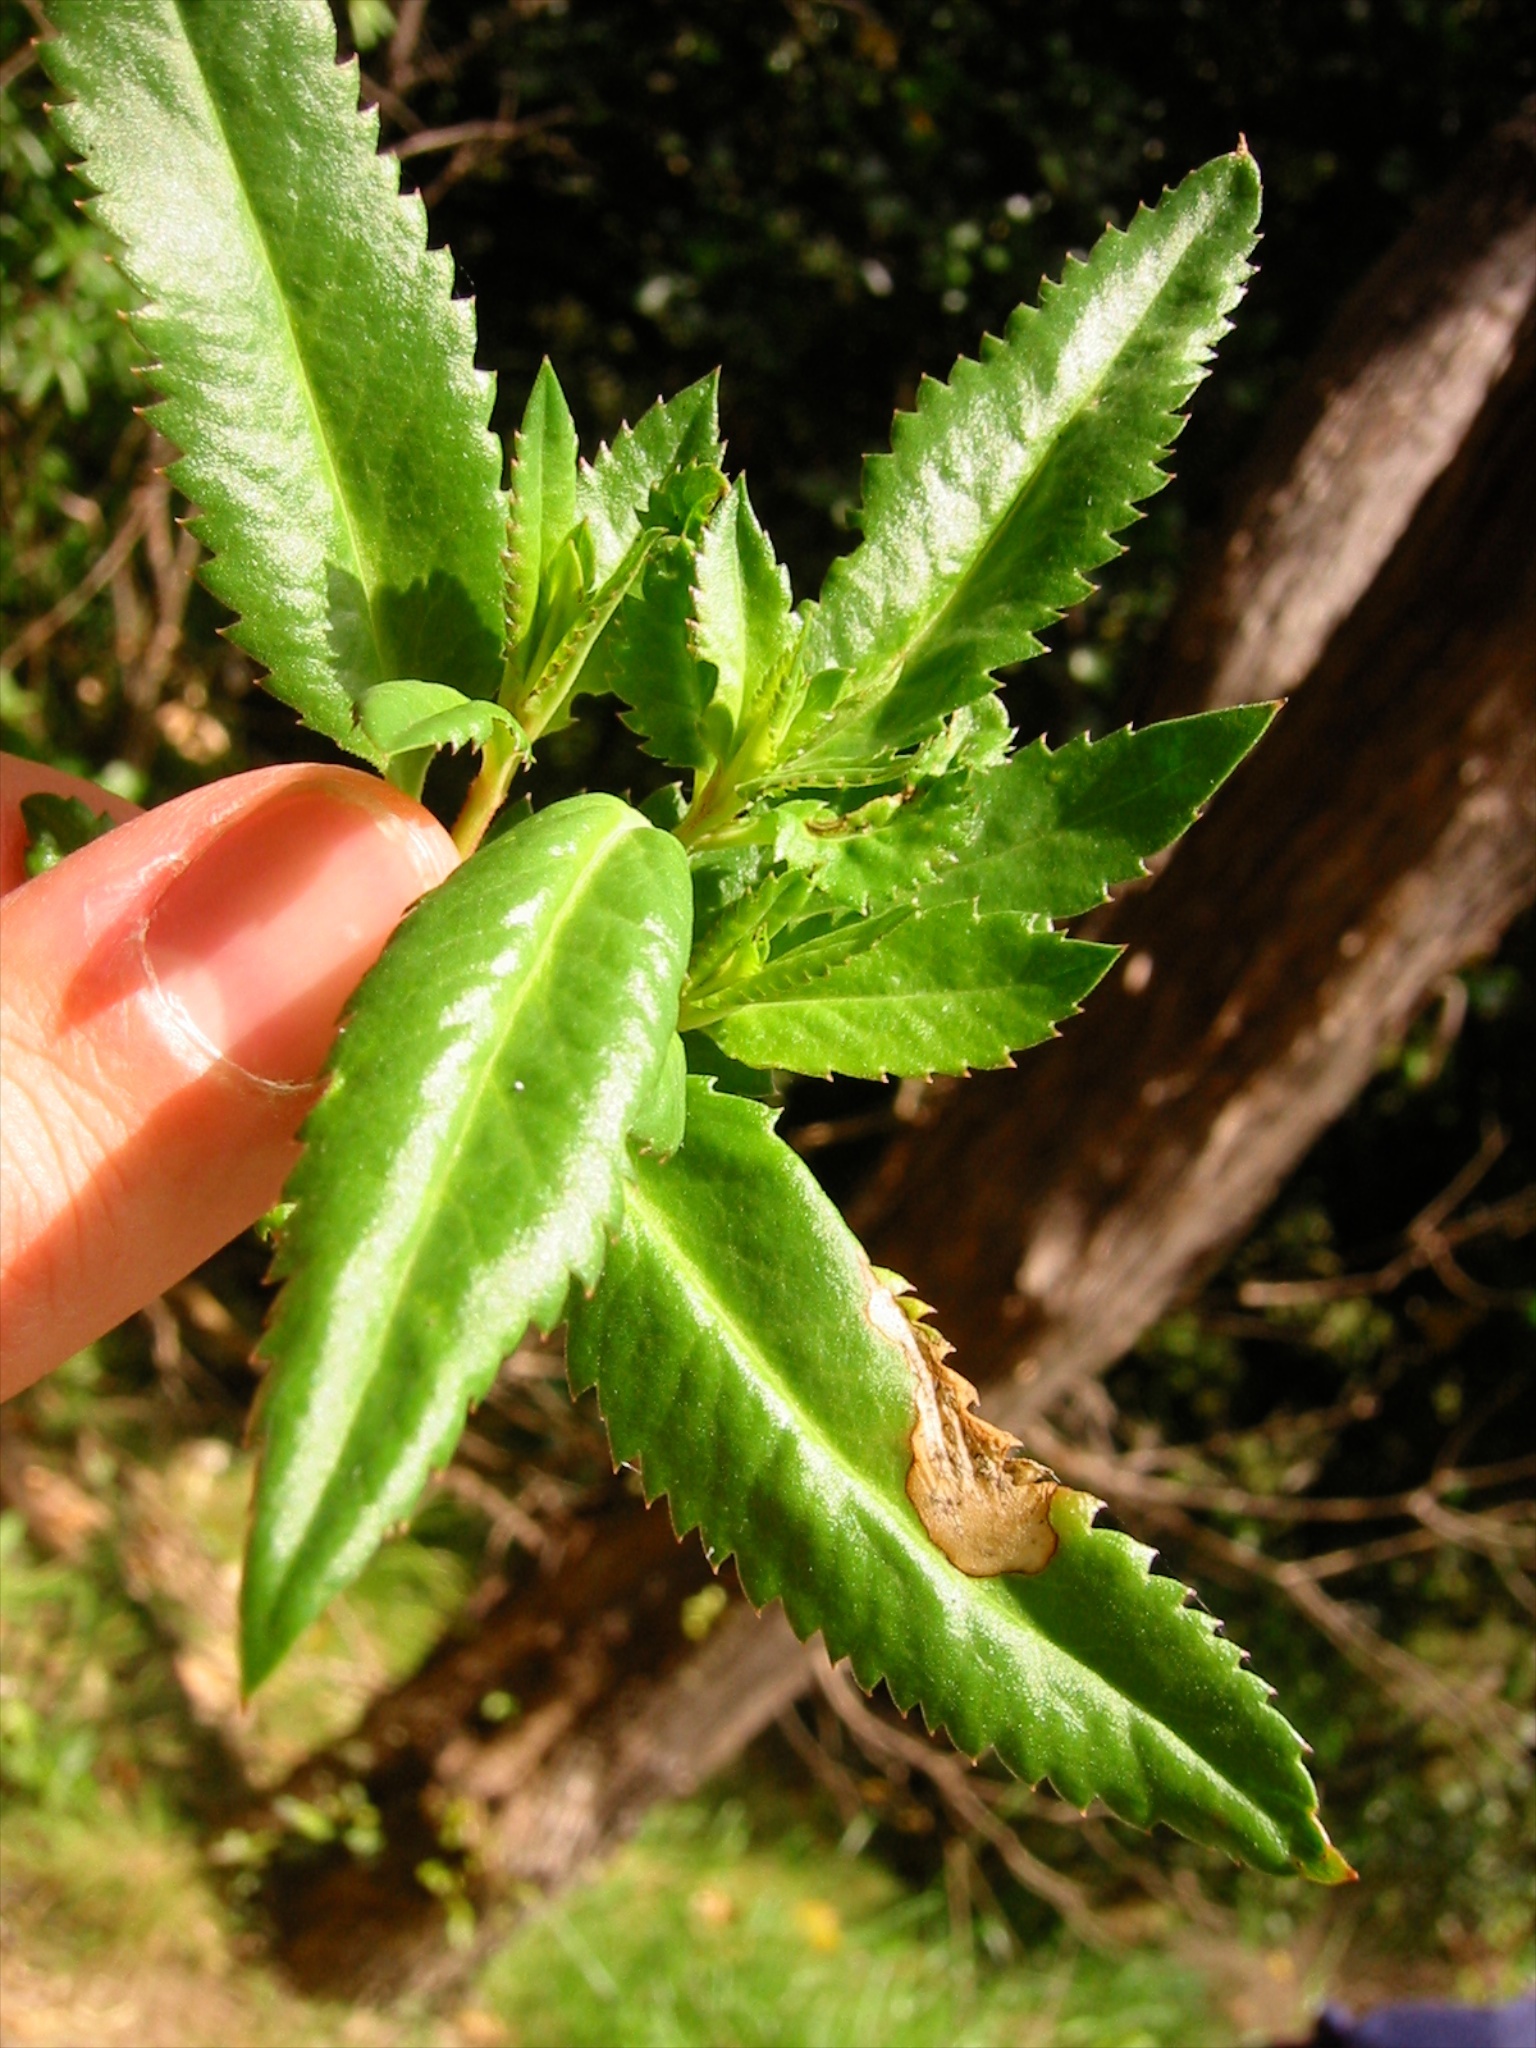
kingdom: Plantae
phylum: Tracheophyta
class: Magnoliopsida
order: Saxifragales
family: Haloragaceae
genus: Haloragis
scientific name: Haloragis erecta
